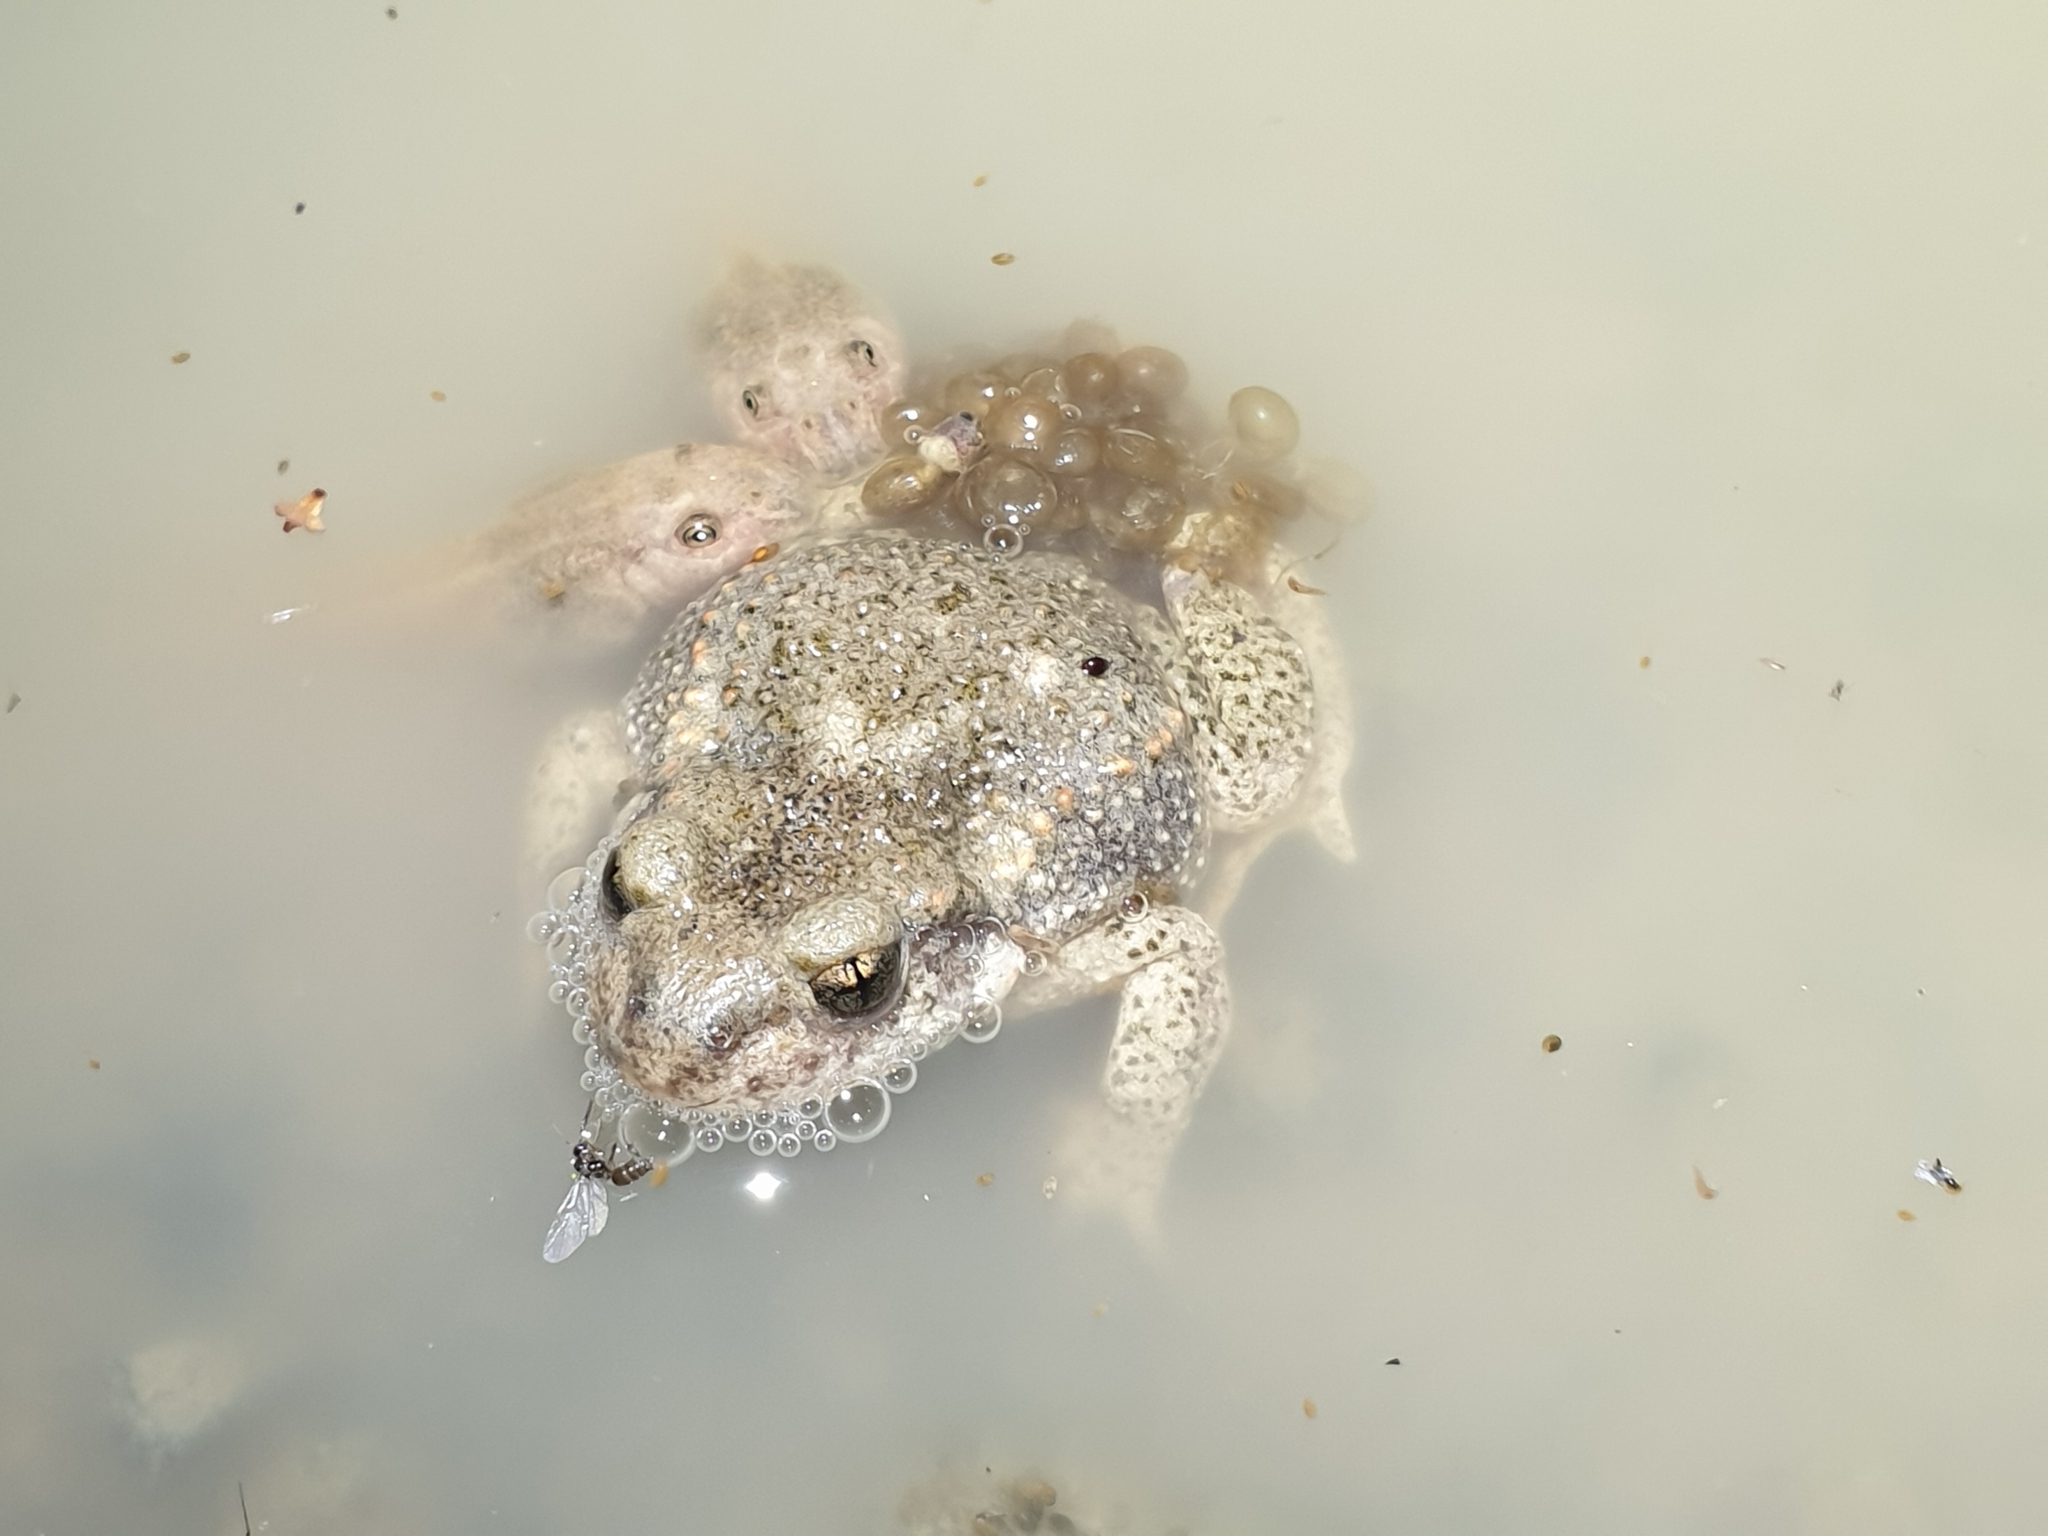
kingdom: Animalia
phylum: Chordata
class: Amphibia
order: Anura
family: Alytidae
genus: Alytes
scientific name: Alytes obstetricans
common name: Midwife toad
